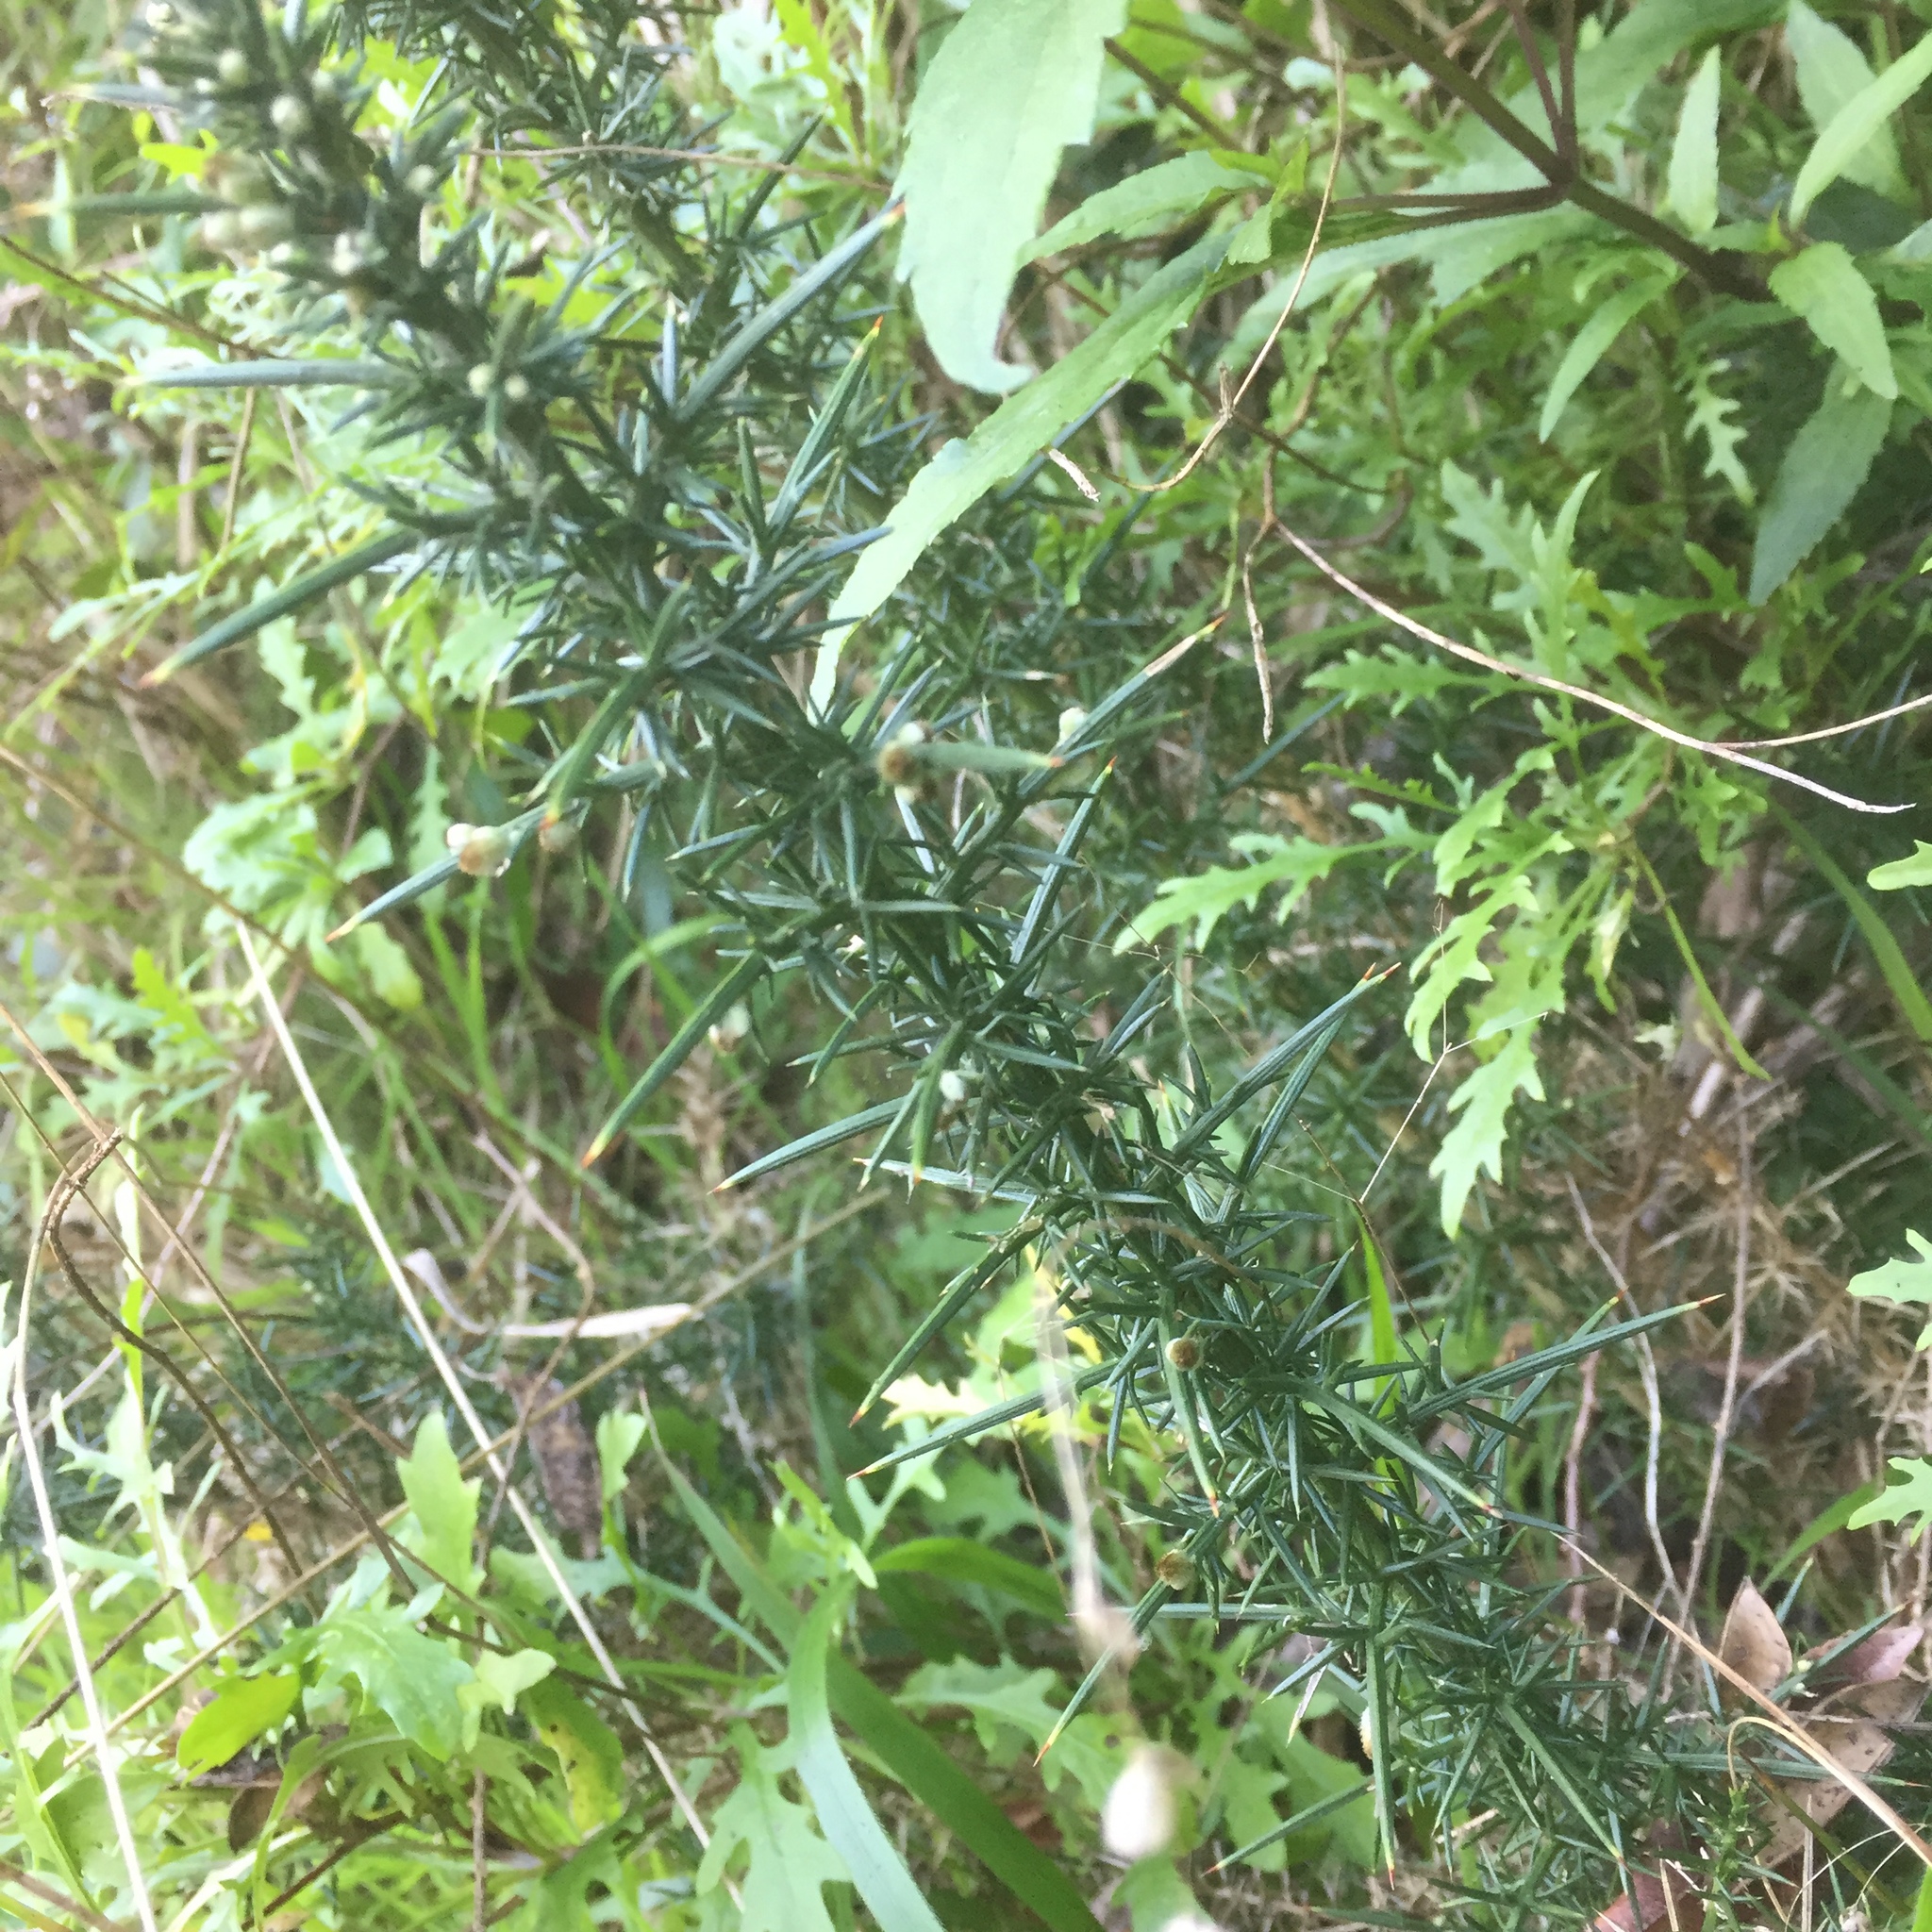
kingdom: Plantae
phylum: Tracheophyta
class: Magnoliopsida
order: Fabales
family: Fabaceae
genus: Ulex
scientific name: Ulex europaeus
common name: Common gorse
